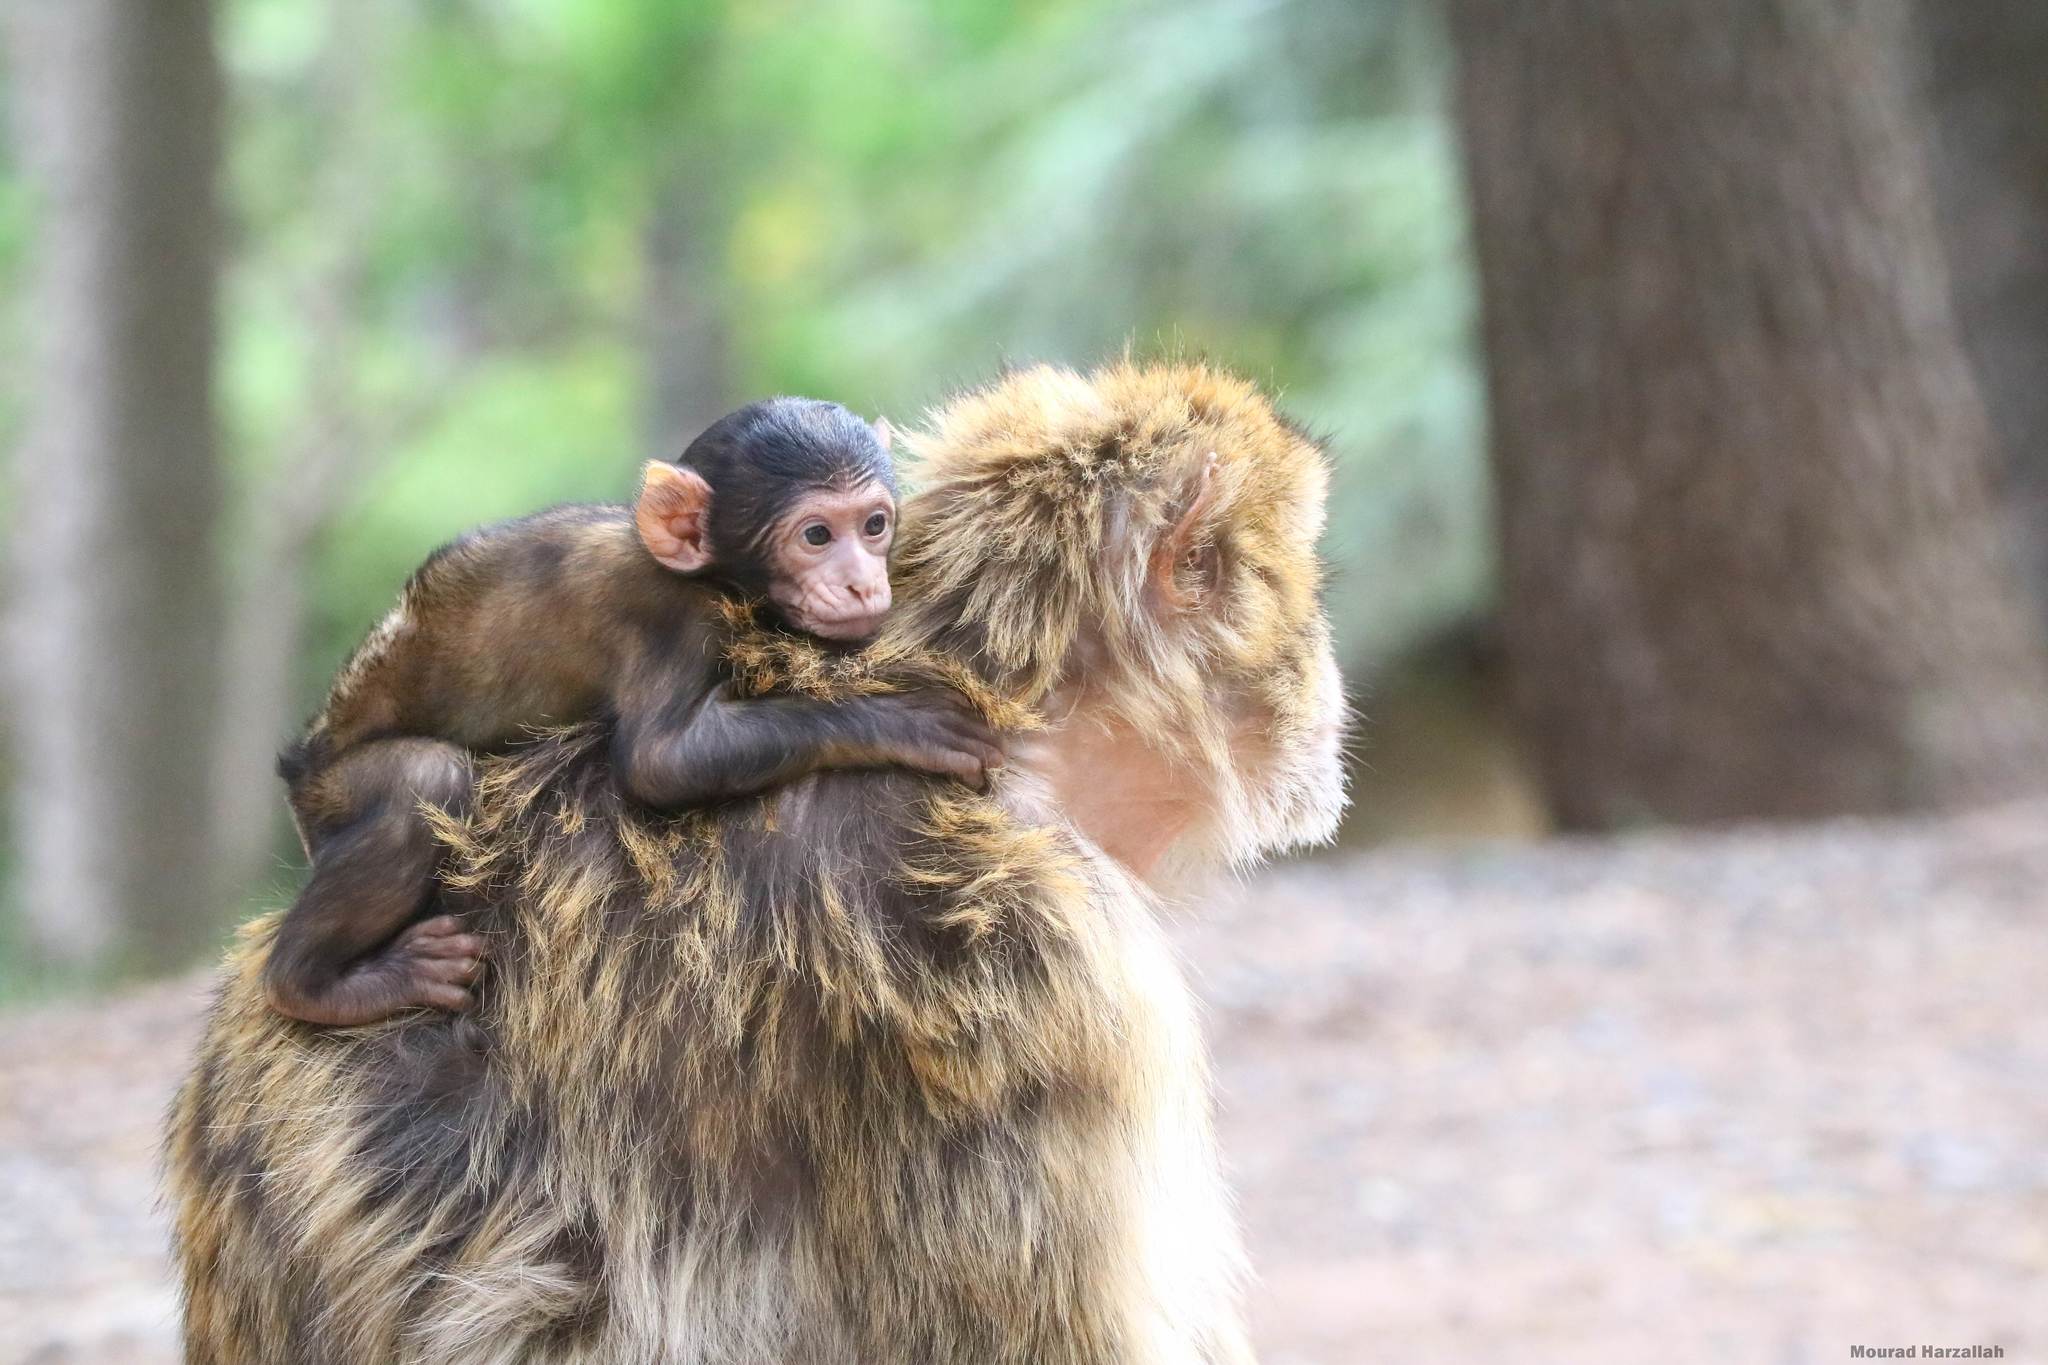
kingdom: Animalia
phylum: Chordata
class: Mammalia
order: Primates
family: Cercopithecidae
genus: Macaca
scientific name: Macaca sylvanus
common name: Barbary macaque
